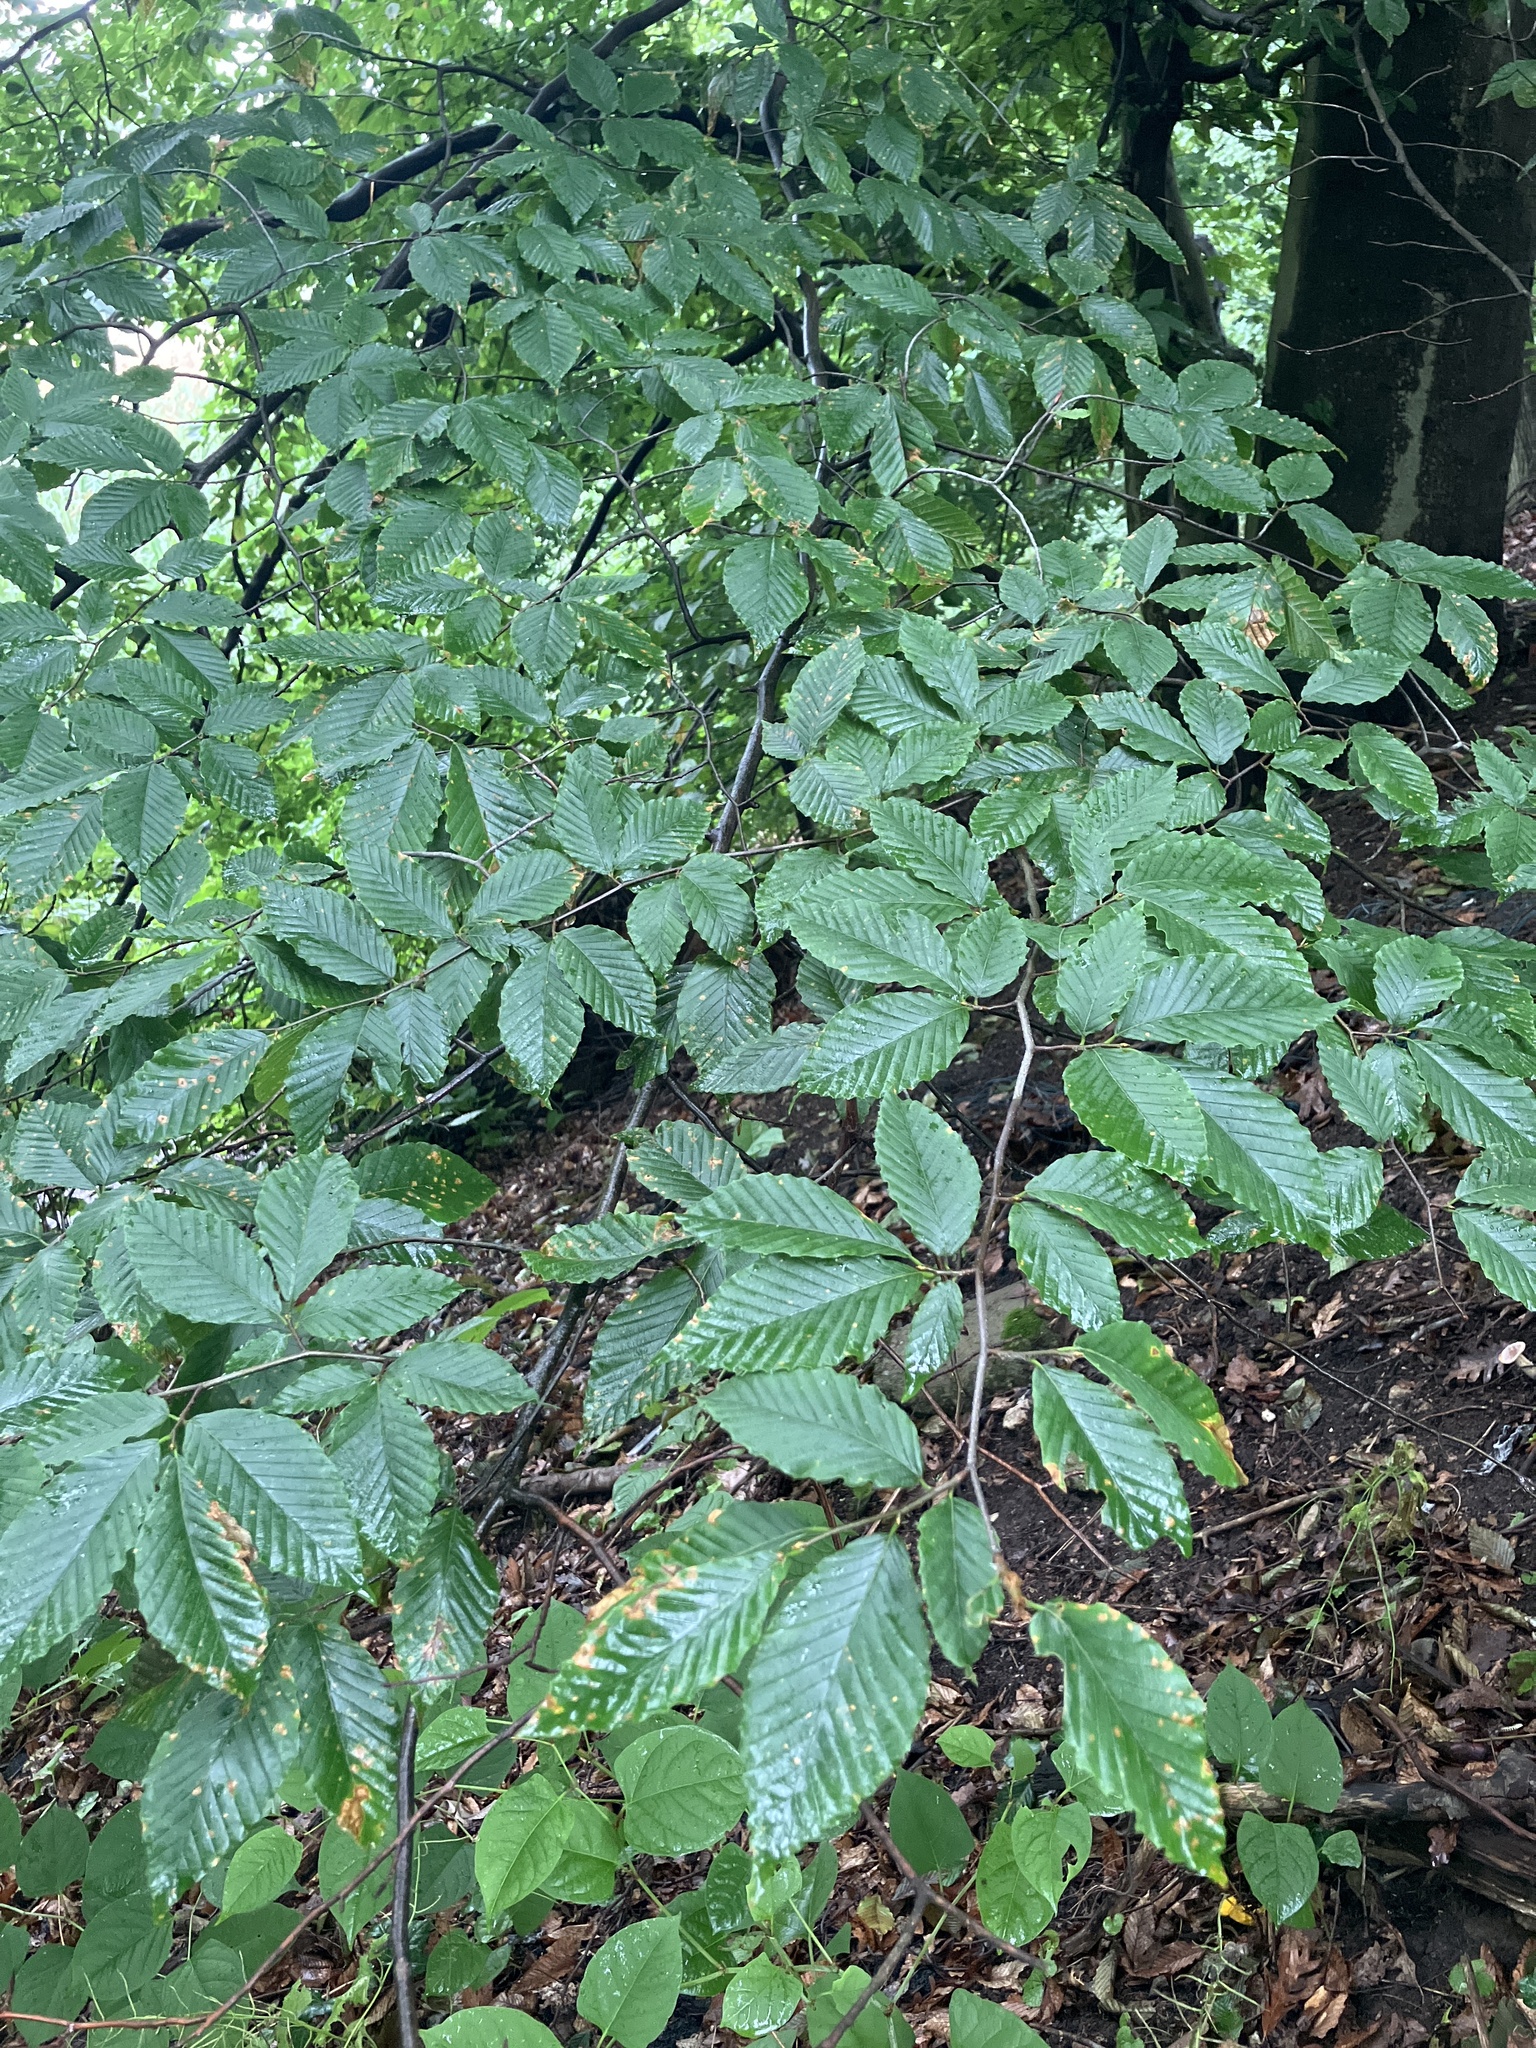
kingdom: Plantae
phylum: Tracheophyta
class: Magnoliopsida
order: Fagales
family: Fagaceae
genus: Fagus
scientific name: Fagus grandifolia
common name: American beech
